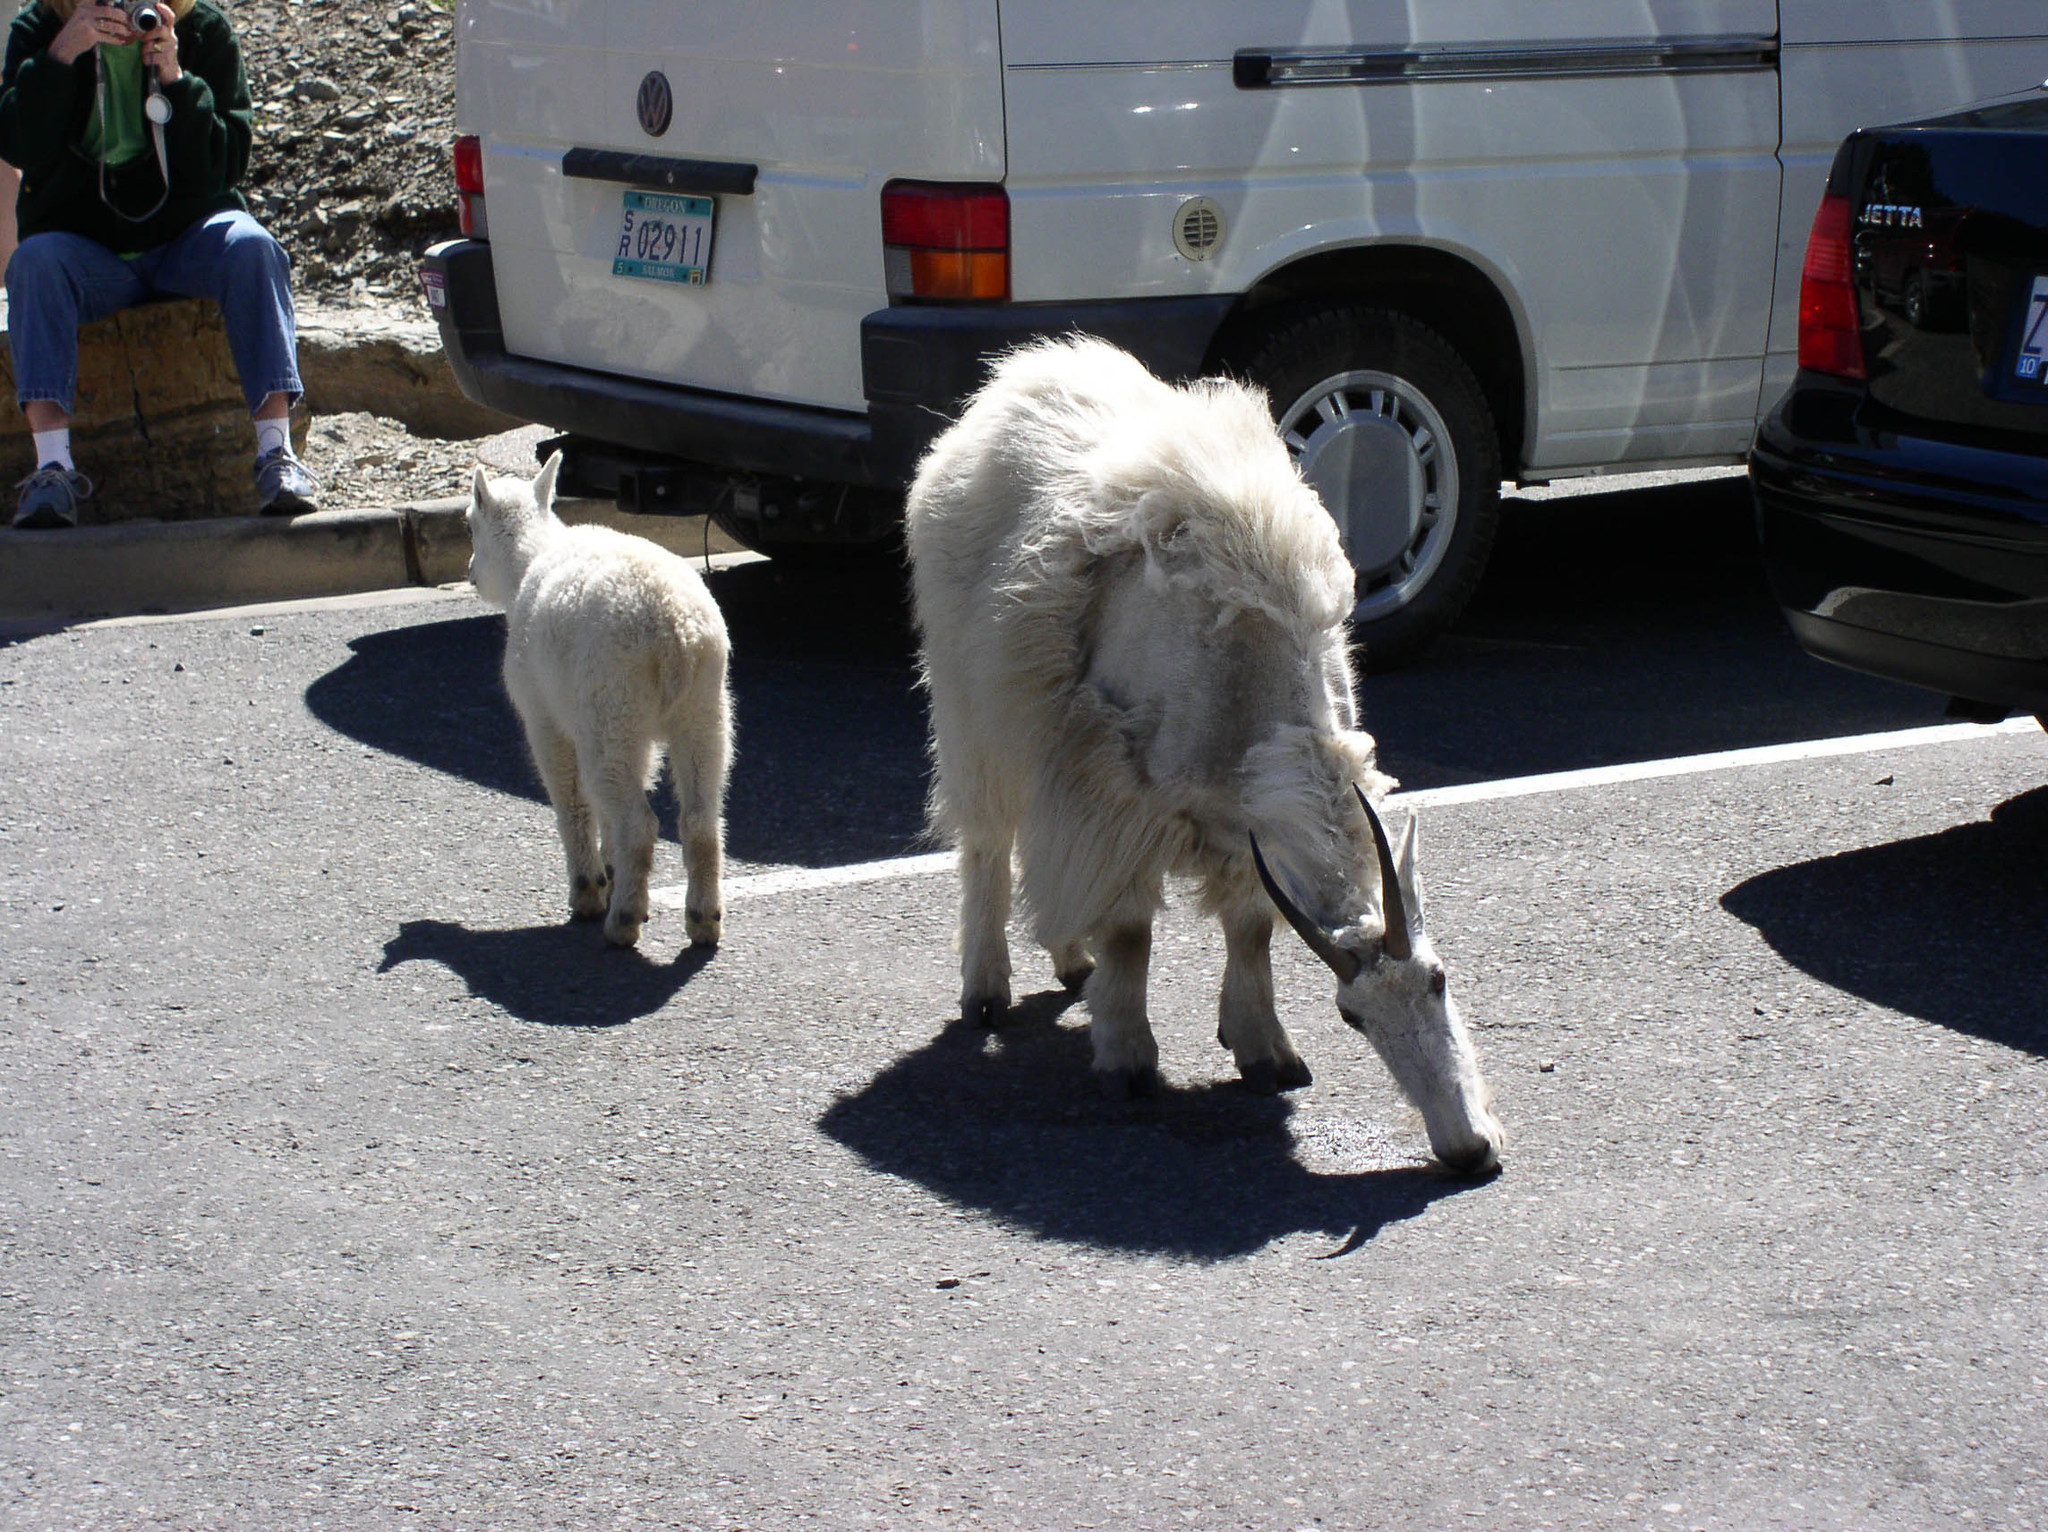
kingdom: Animalia
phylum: Chordata
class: Mammalia
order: Artiodactyla
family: Bovidae
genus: Oreamnos
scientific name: Oreamnos americanus
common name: Mountain goat
